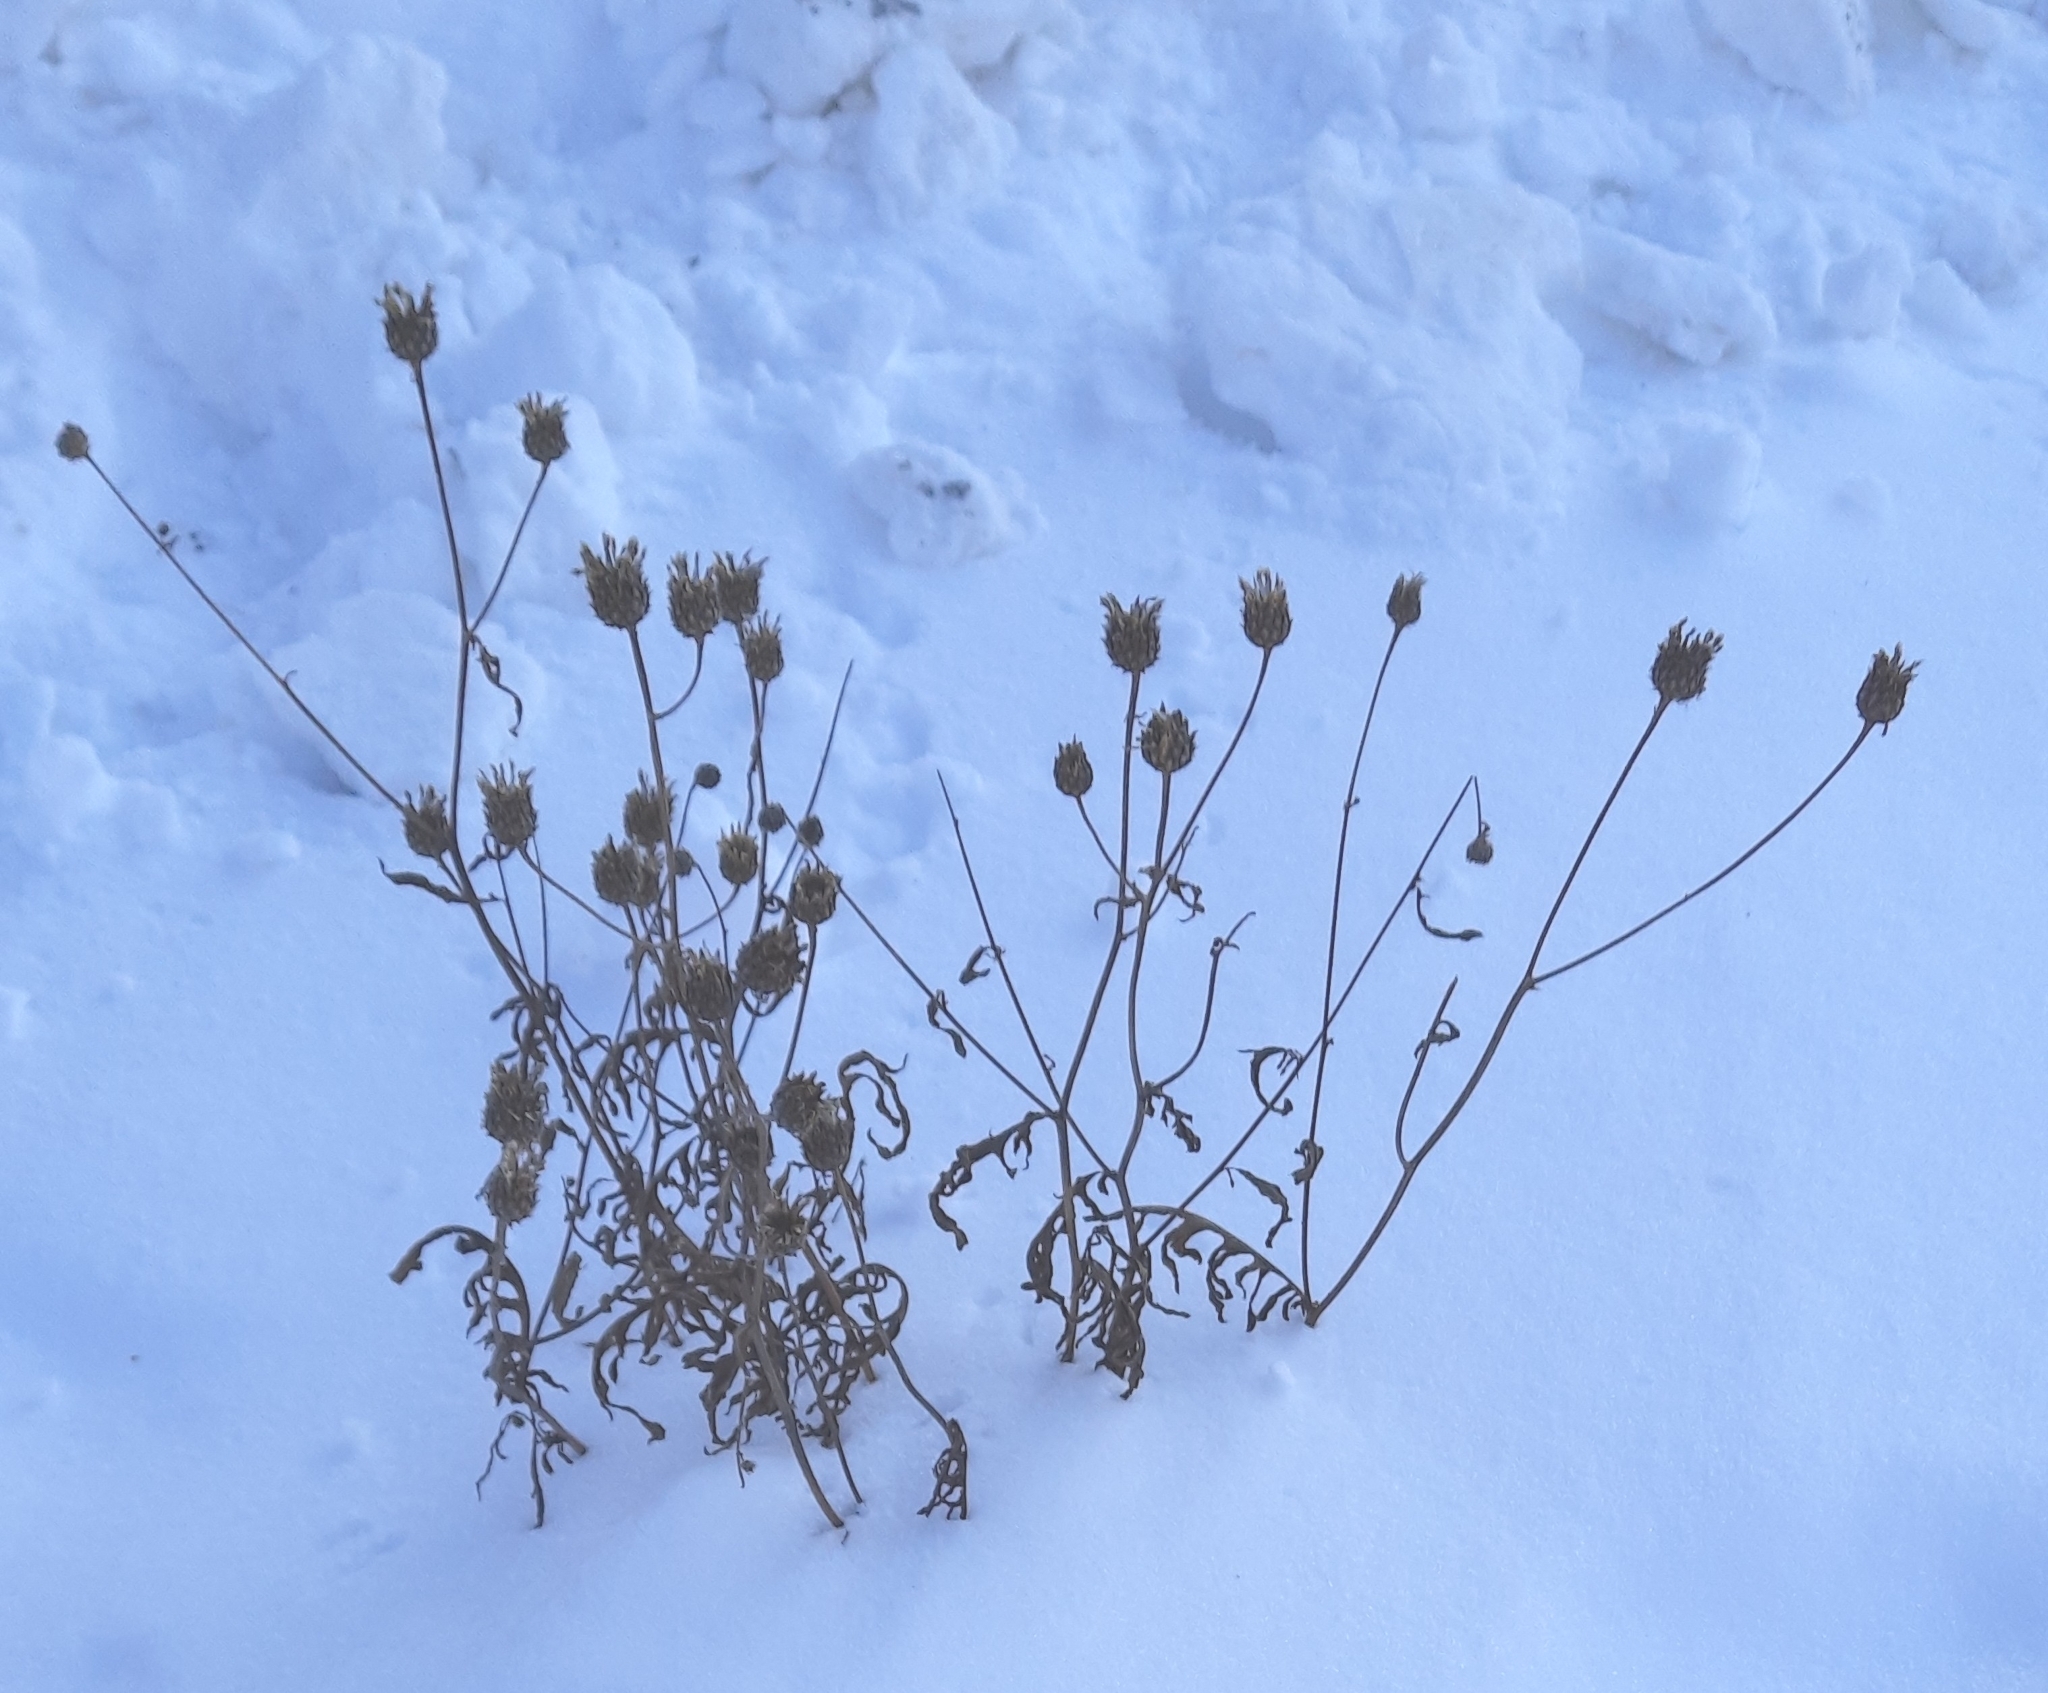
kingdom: Plantae
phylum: Tracheophyta
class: Magnoliopsida
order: Asterales
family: Asteraceae
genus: Centaurea
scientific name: Centaurea scabiosa
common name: Greater knapweed
